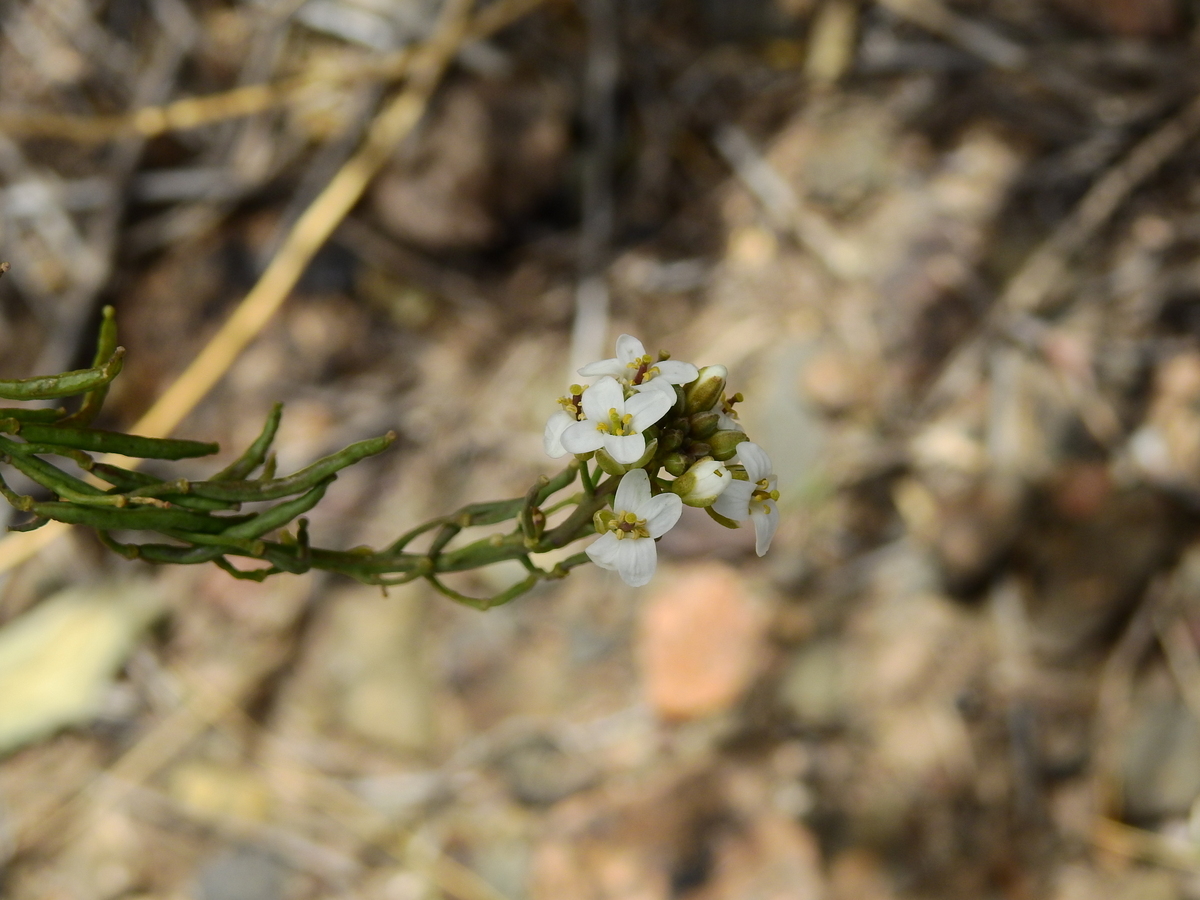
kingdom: Plantae
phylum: Tracheophyta
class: Magnoliopsida
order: Brassicales
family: Brassicaceae
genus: Neuontobotrys
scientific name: Neuontobotrys frutescens
